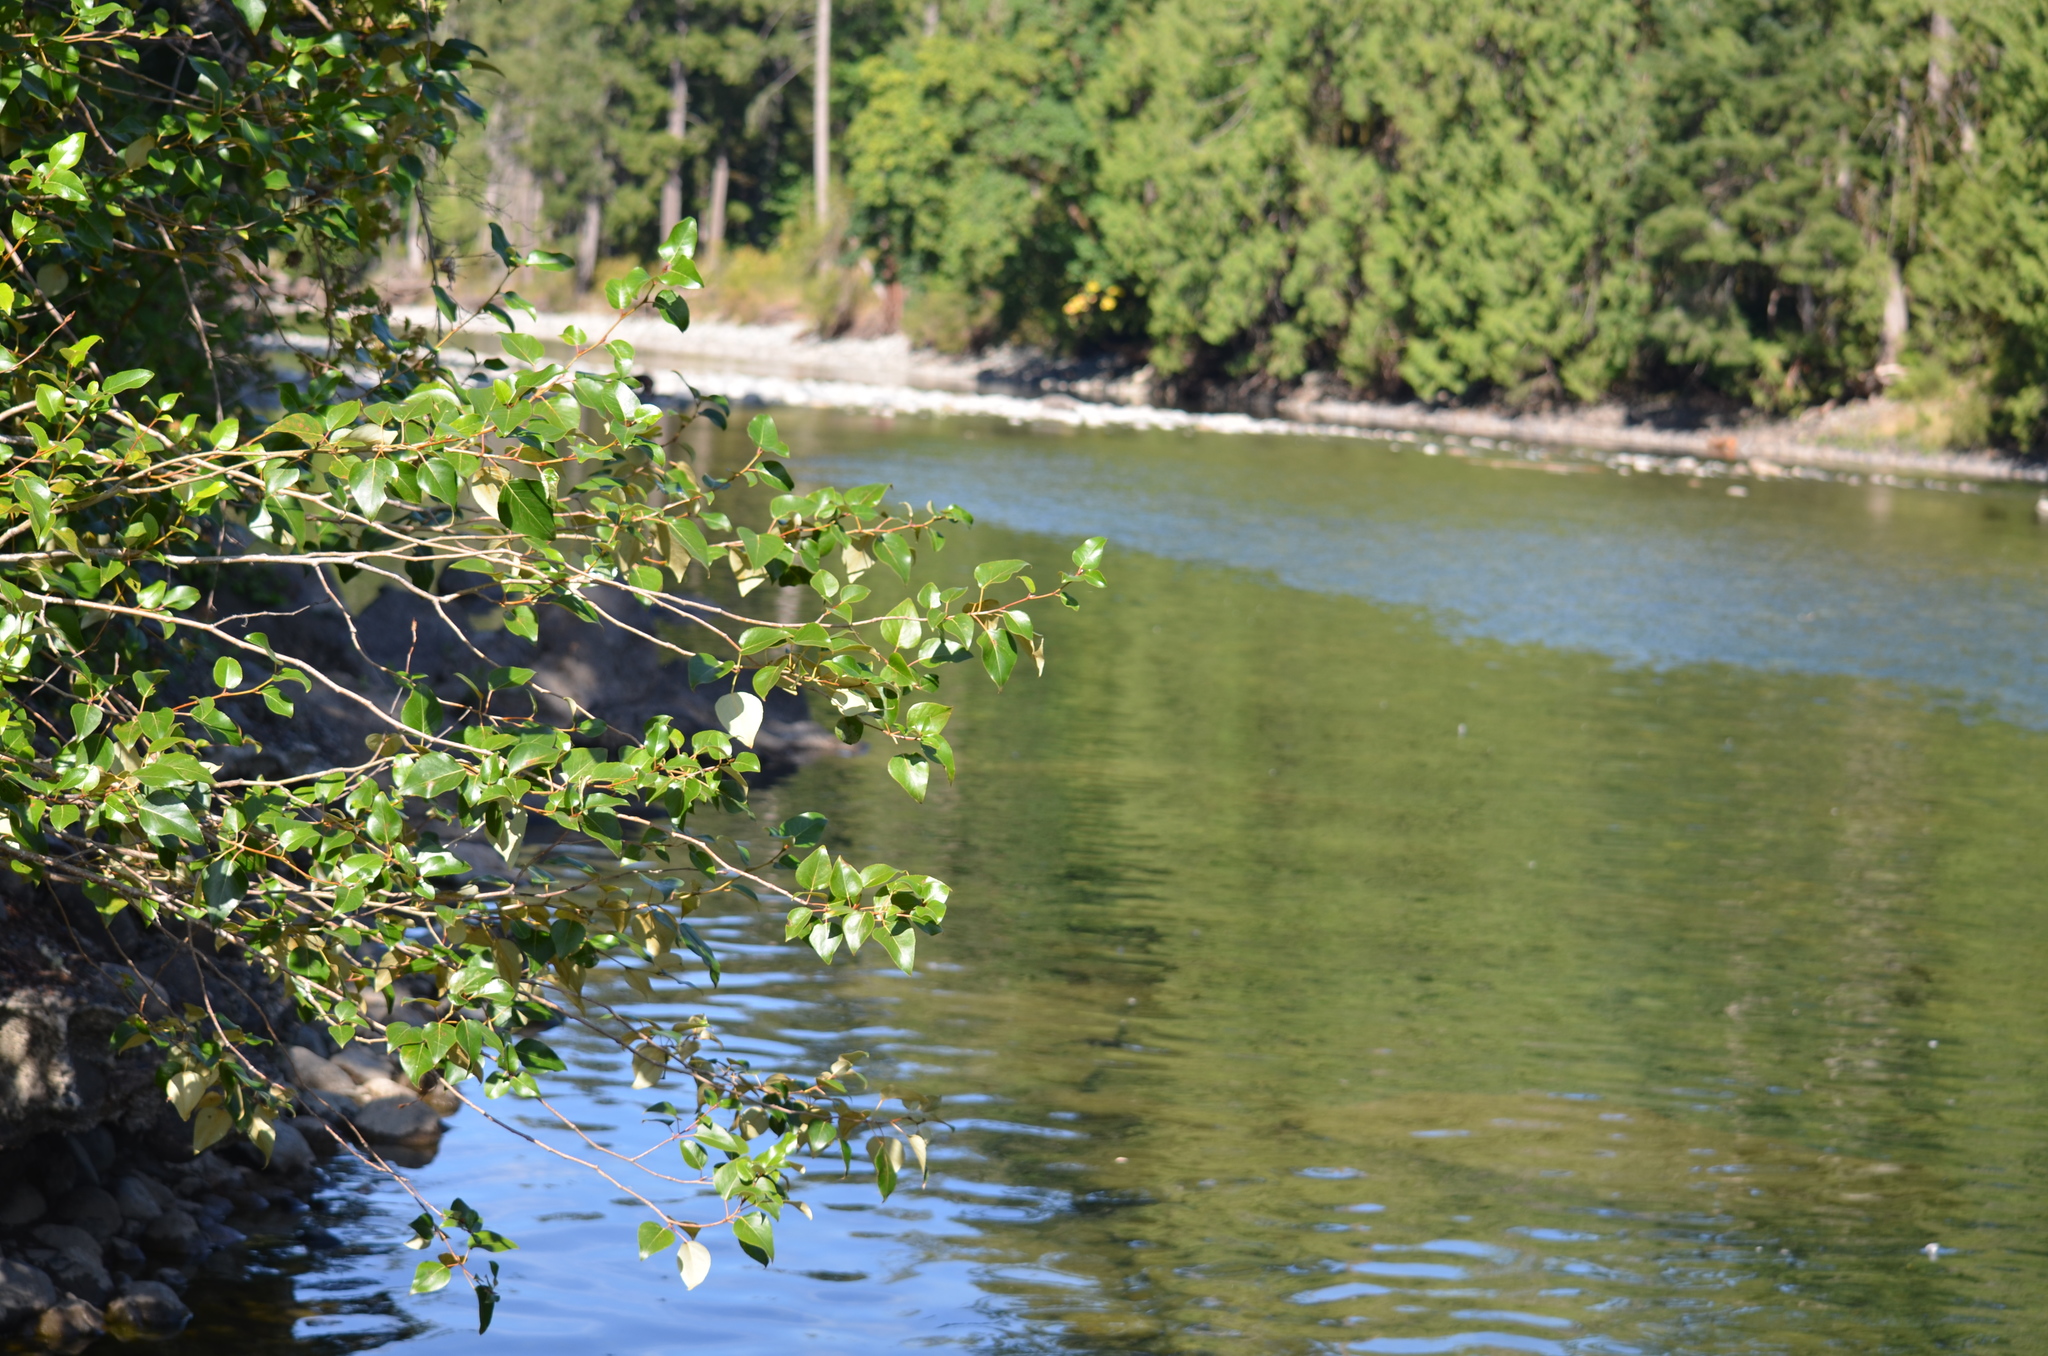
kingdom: Plantae
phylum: Tracheophyta
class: Magnoliopsida
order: Malpighiales
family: Salicaceae
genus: Populus
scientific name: Populus trichocarpa
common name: Black cottonwood
